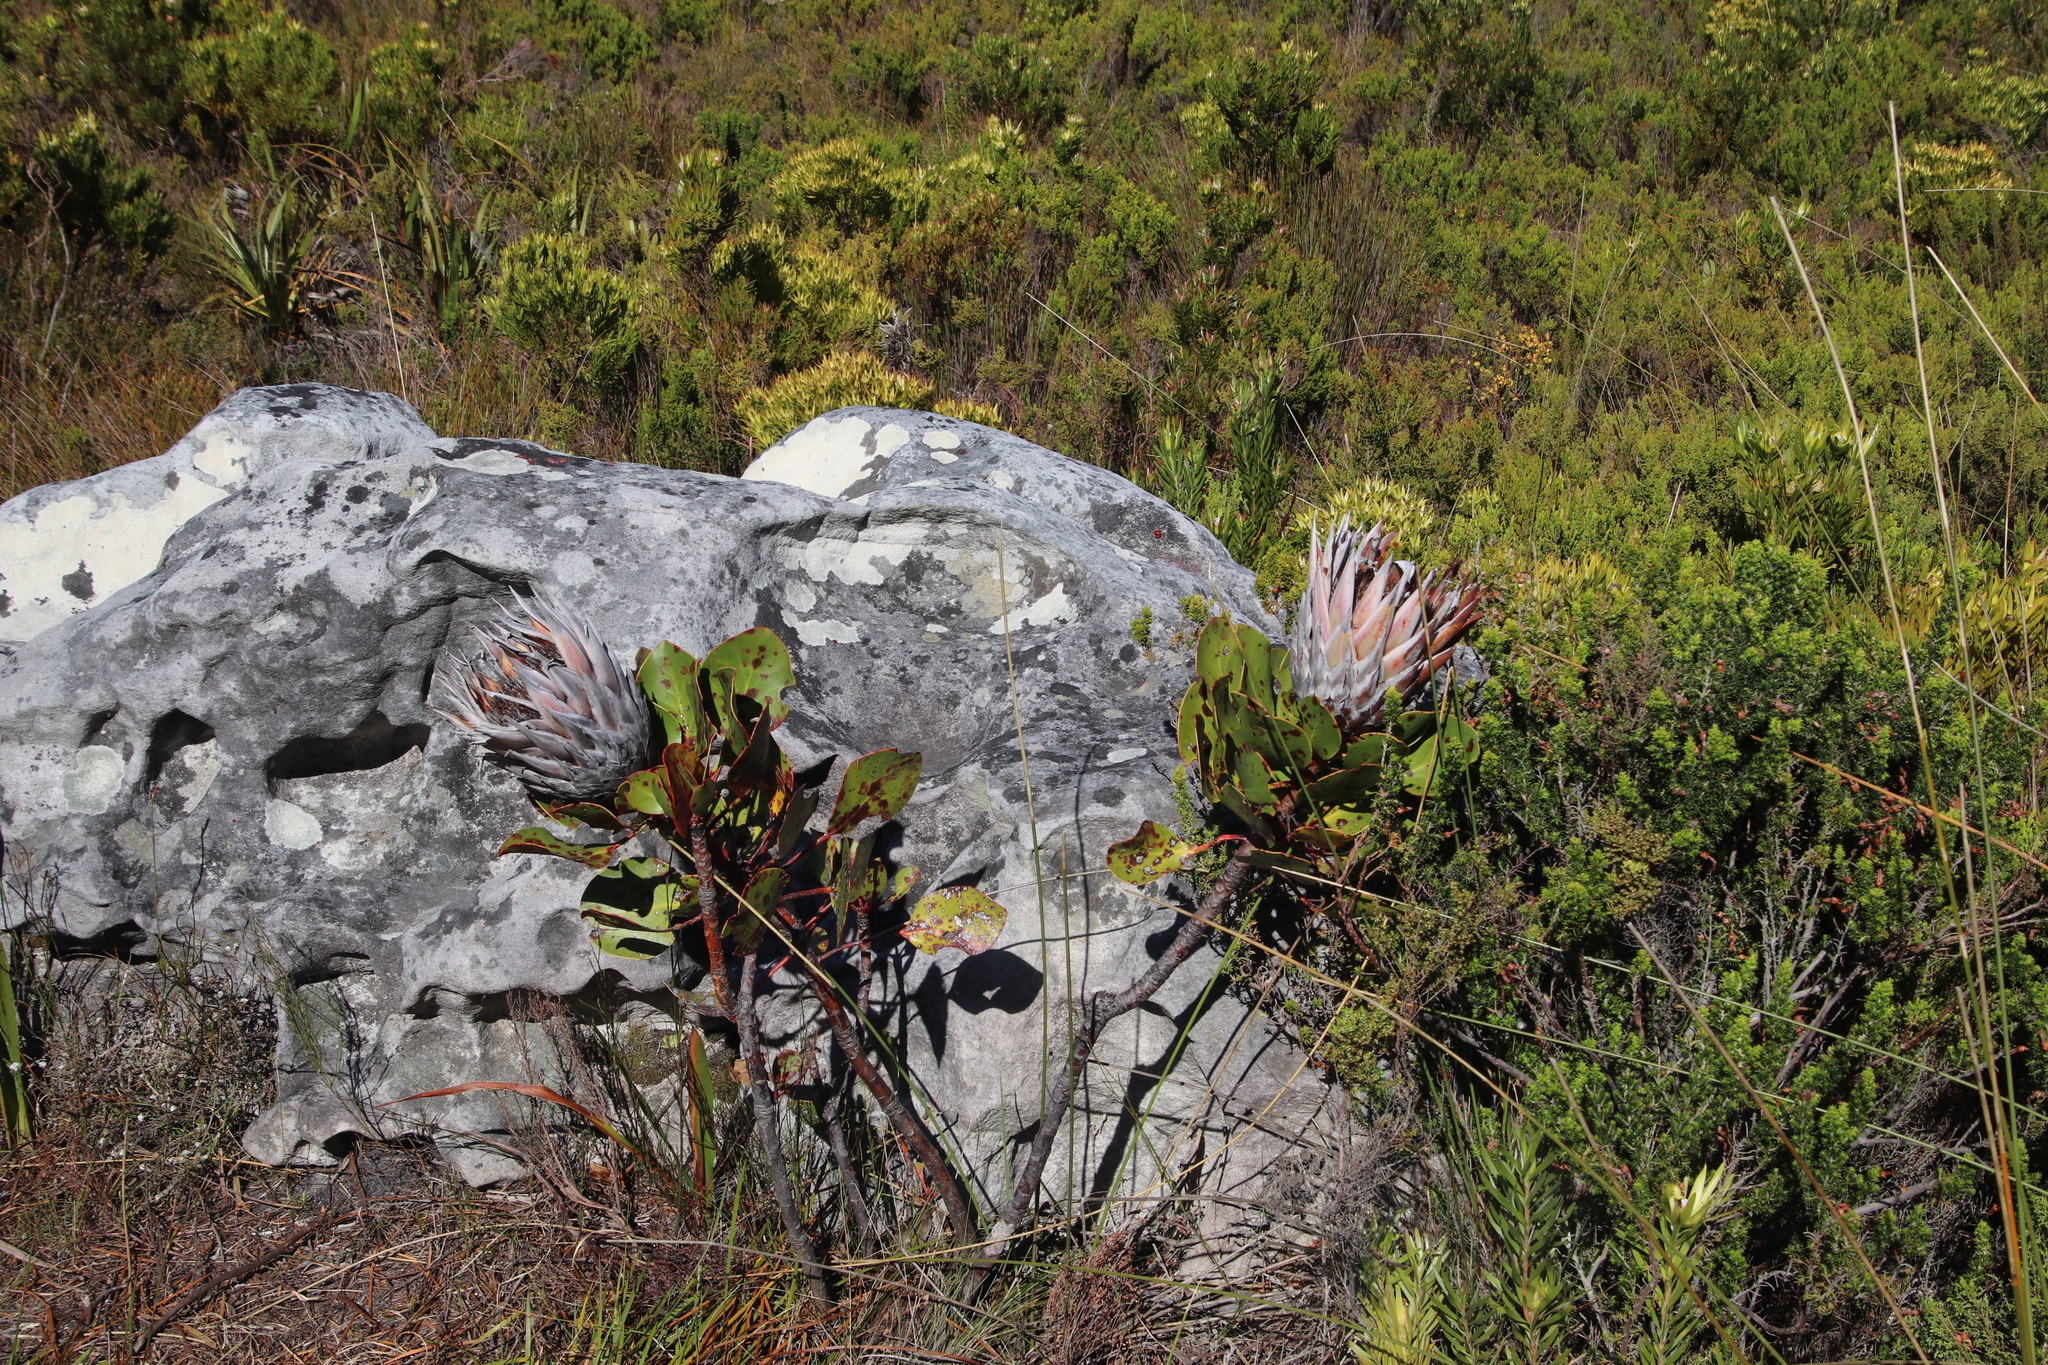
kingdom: Plantae
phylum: Tracheophyta
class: Magnoliopsida
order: Proteales
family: Proteaceae
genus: Protea
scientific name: Protea cynaroides
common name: King protea
